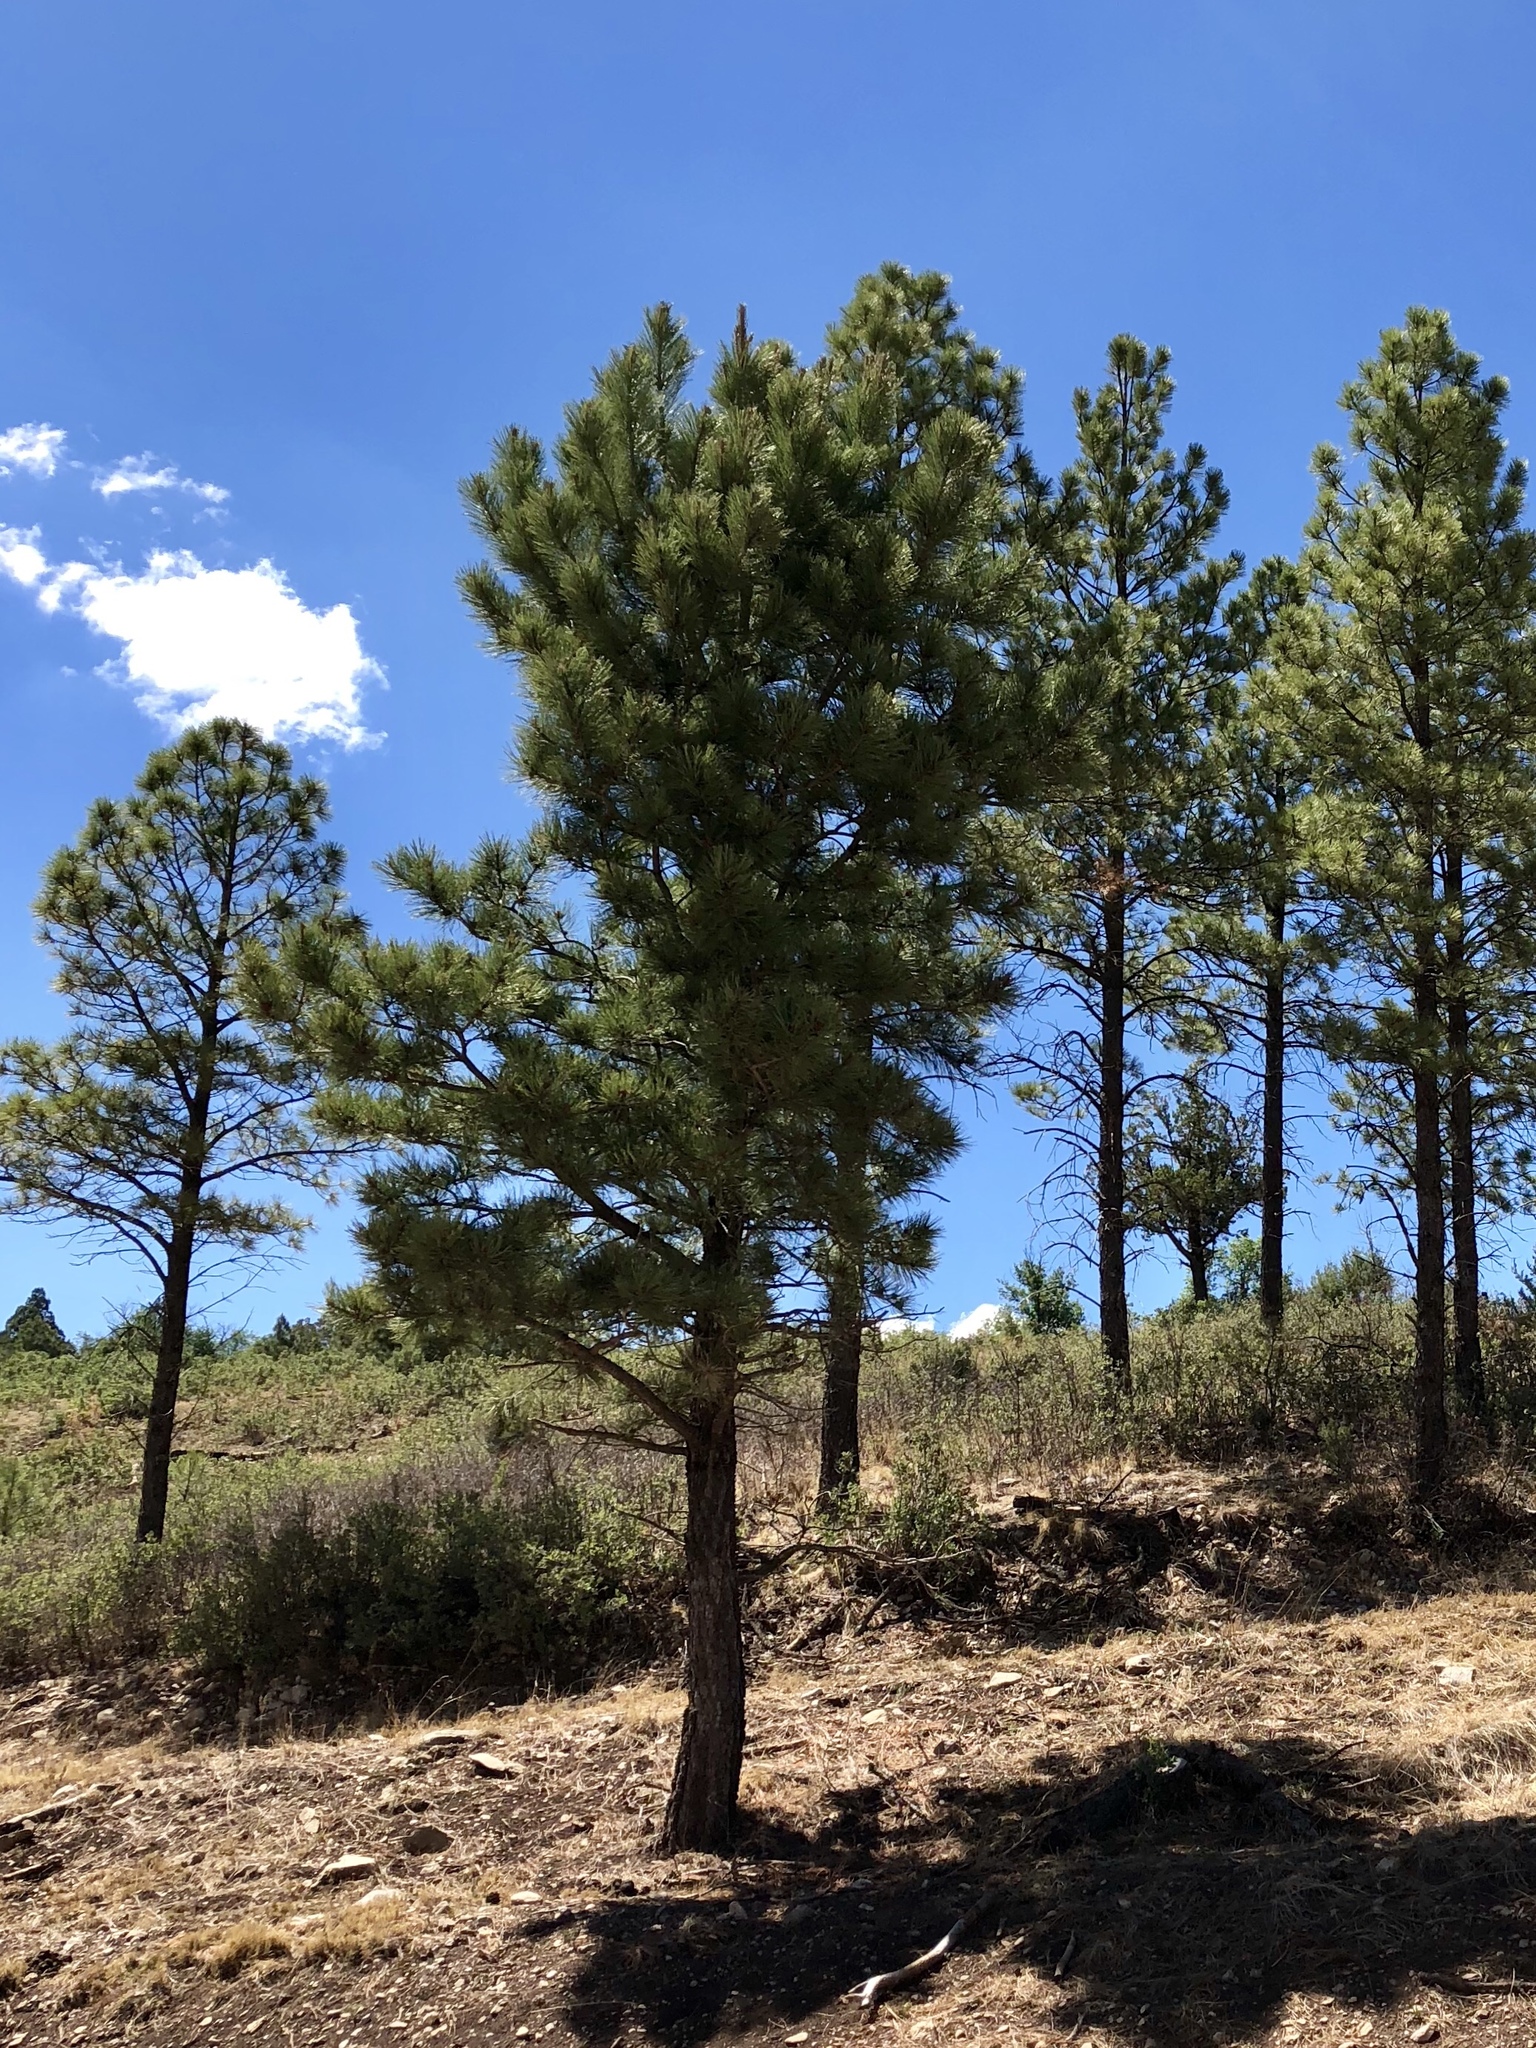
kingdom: Plantae
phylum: Tracheophyta
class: Pinopsida
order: Pinales
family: Pinaceae
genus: Pinus
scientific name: Pinus ponderosa
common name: Western yellow-pine
